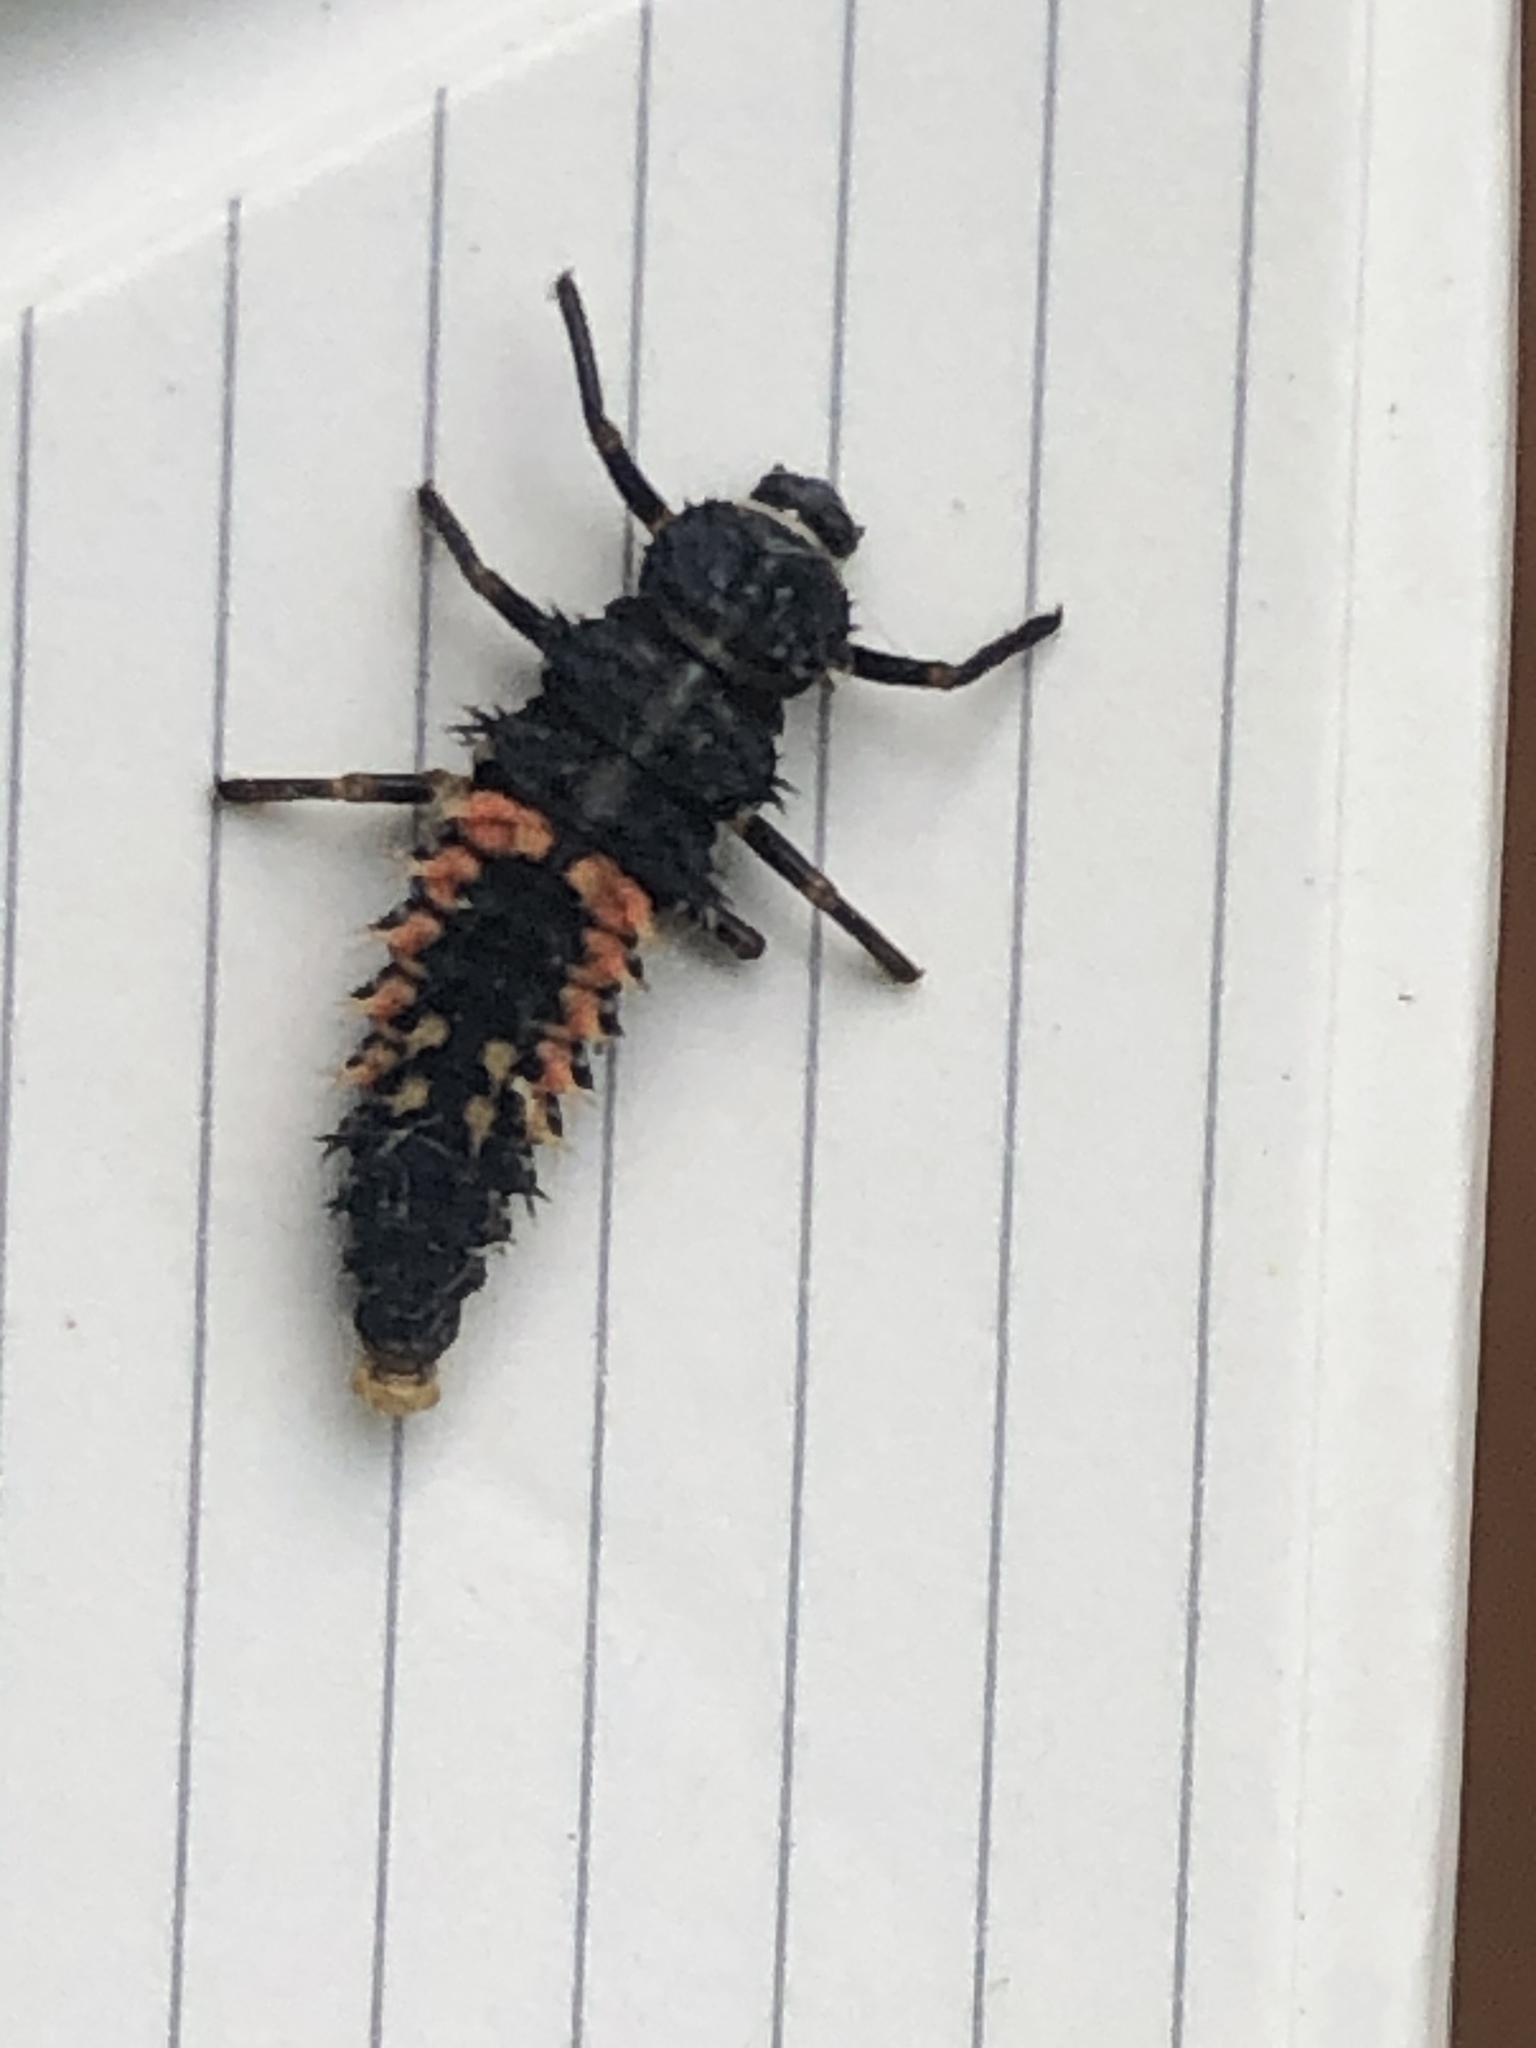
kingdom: Animalia
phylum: Arthropoda
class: Insecta
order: Coleoptera
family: Coccinellidae
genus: Harmonia
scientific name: Harmonia axyridis
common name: Harlequin ladybird
